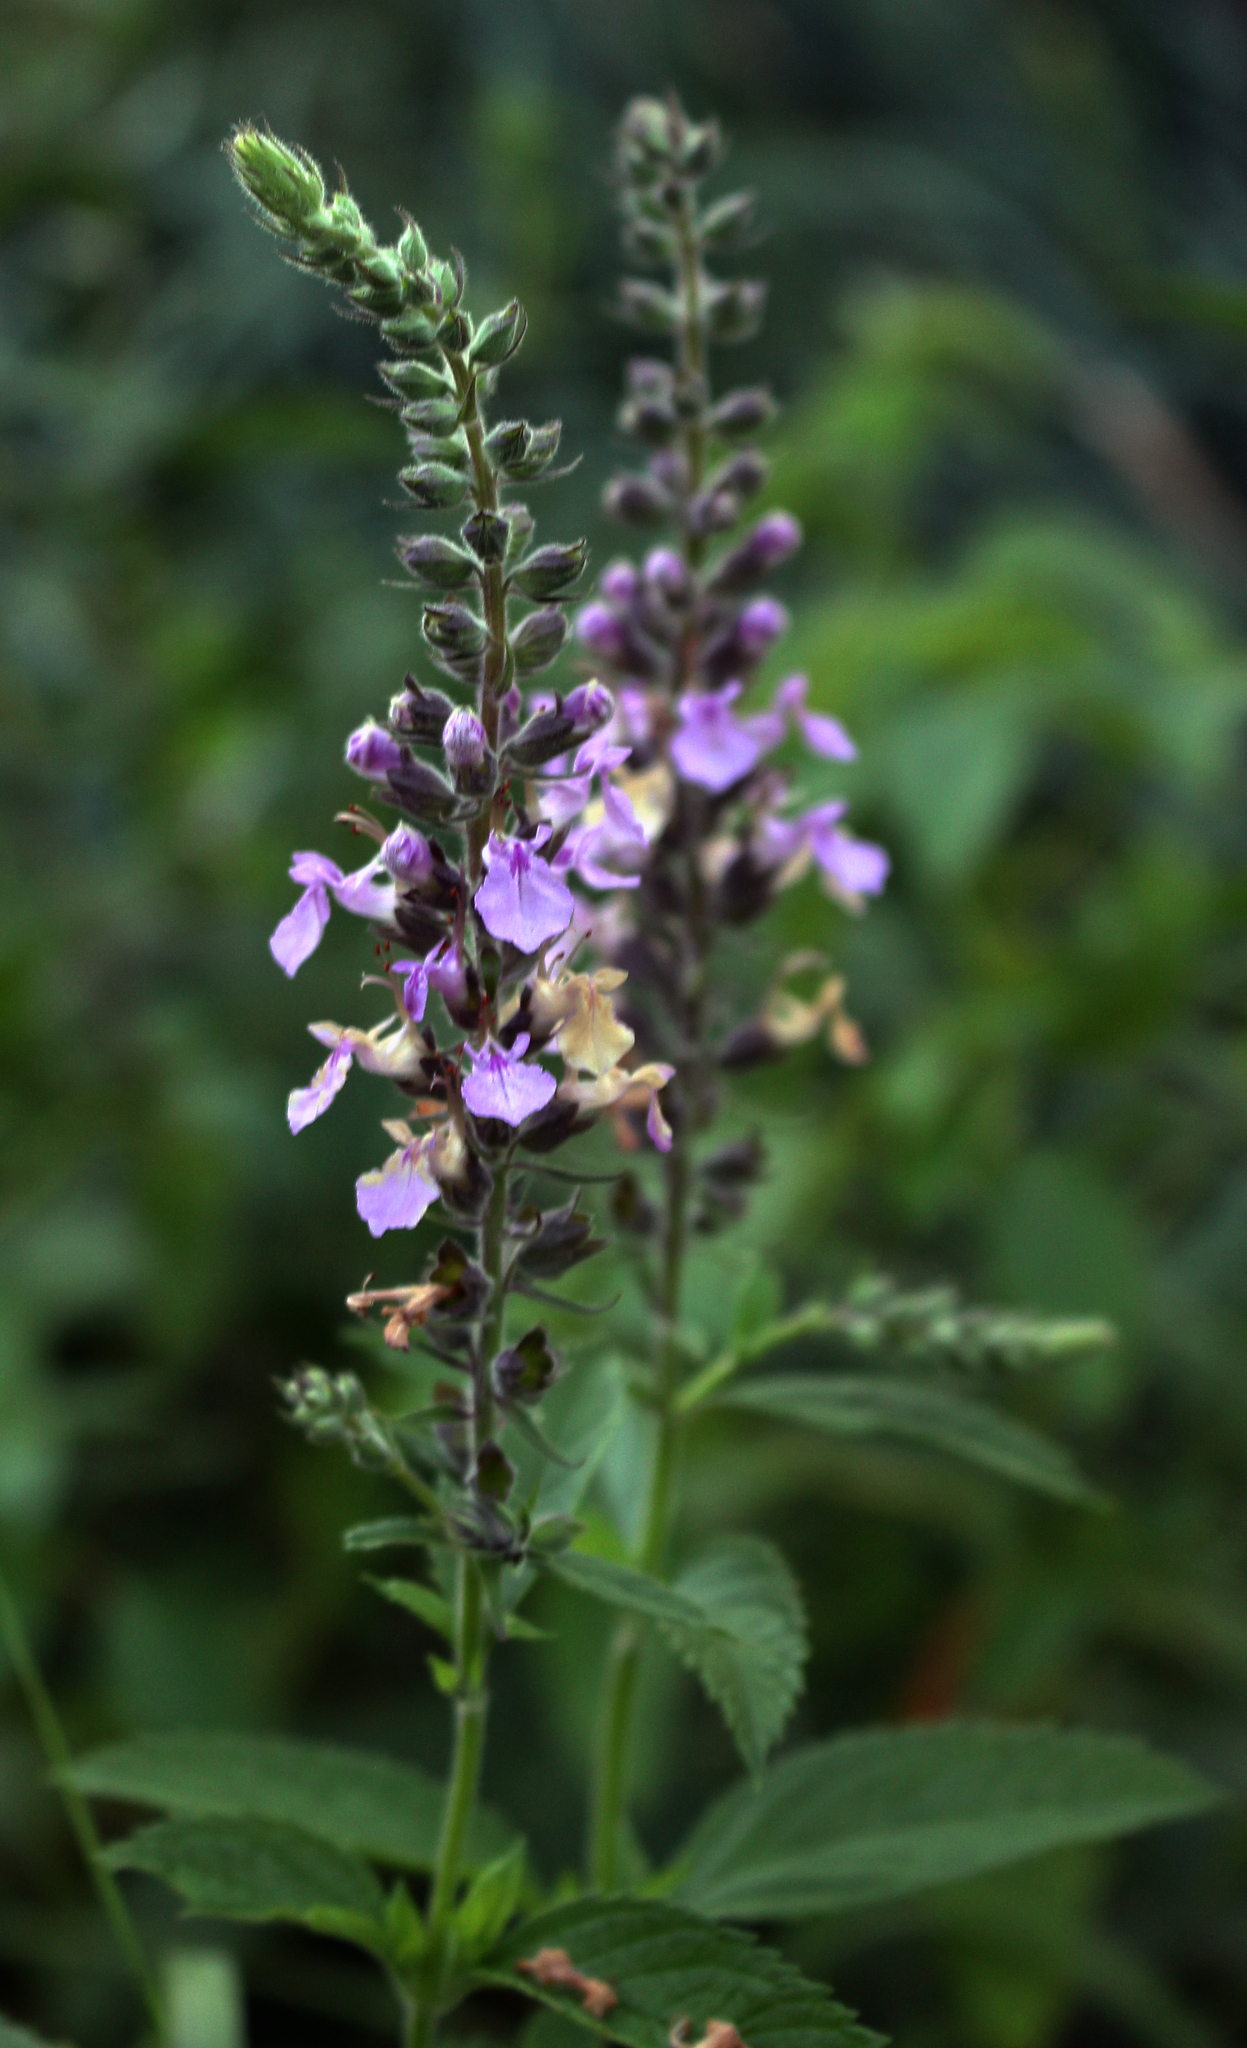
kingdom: Plantae
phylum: Tracheophyta
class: Magnoliopsida
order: Lamiales
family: Lamiaceae
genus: Teucrium
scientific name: Teucrium canadense
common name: American germander
